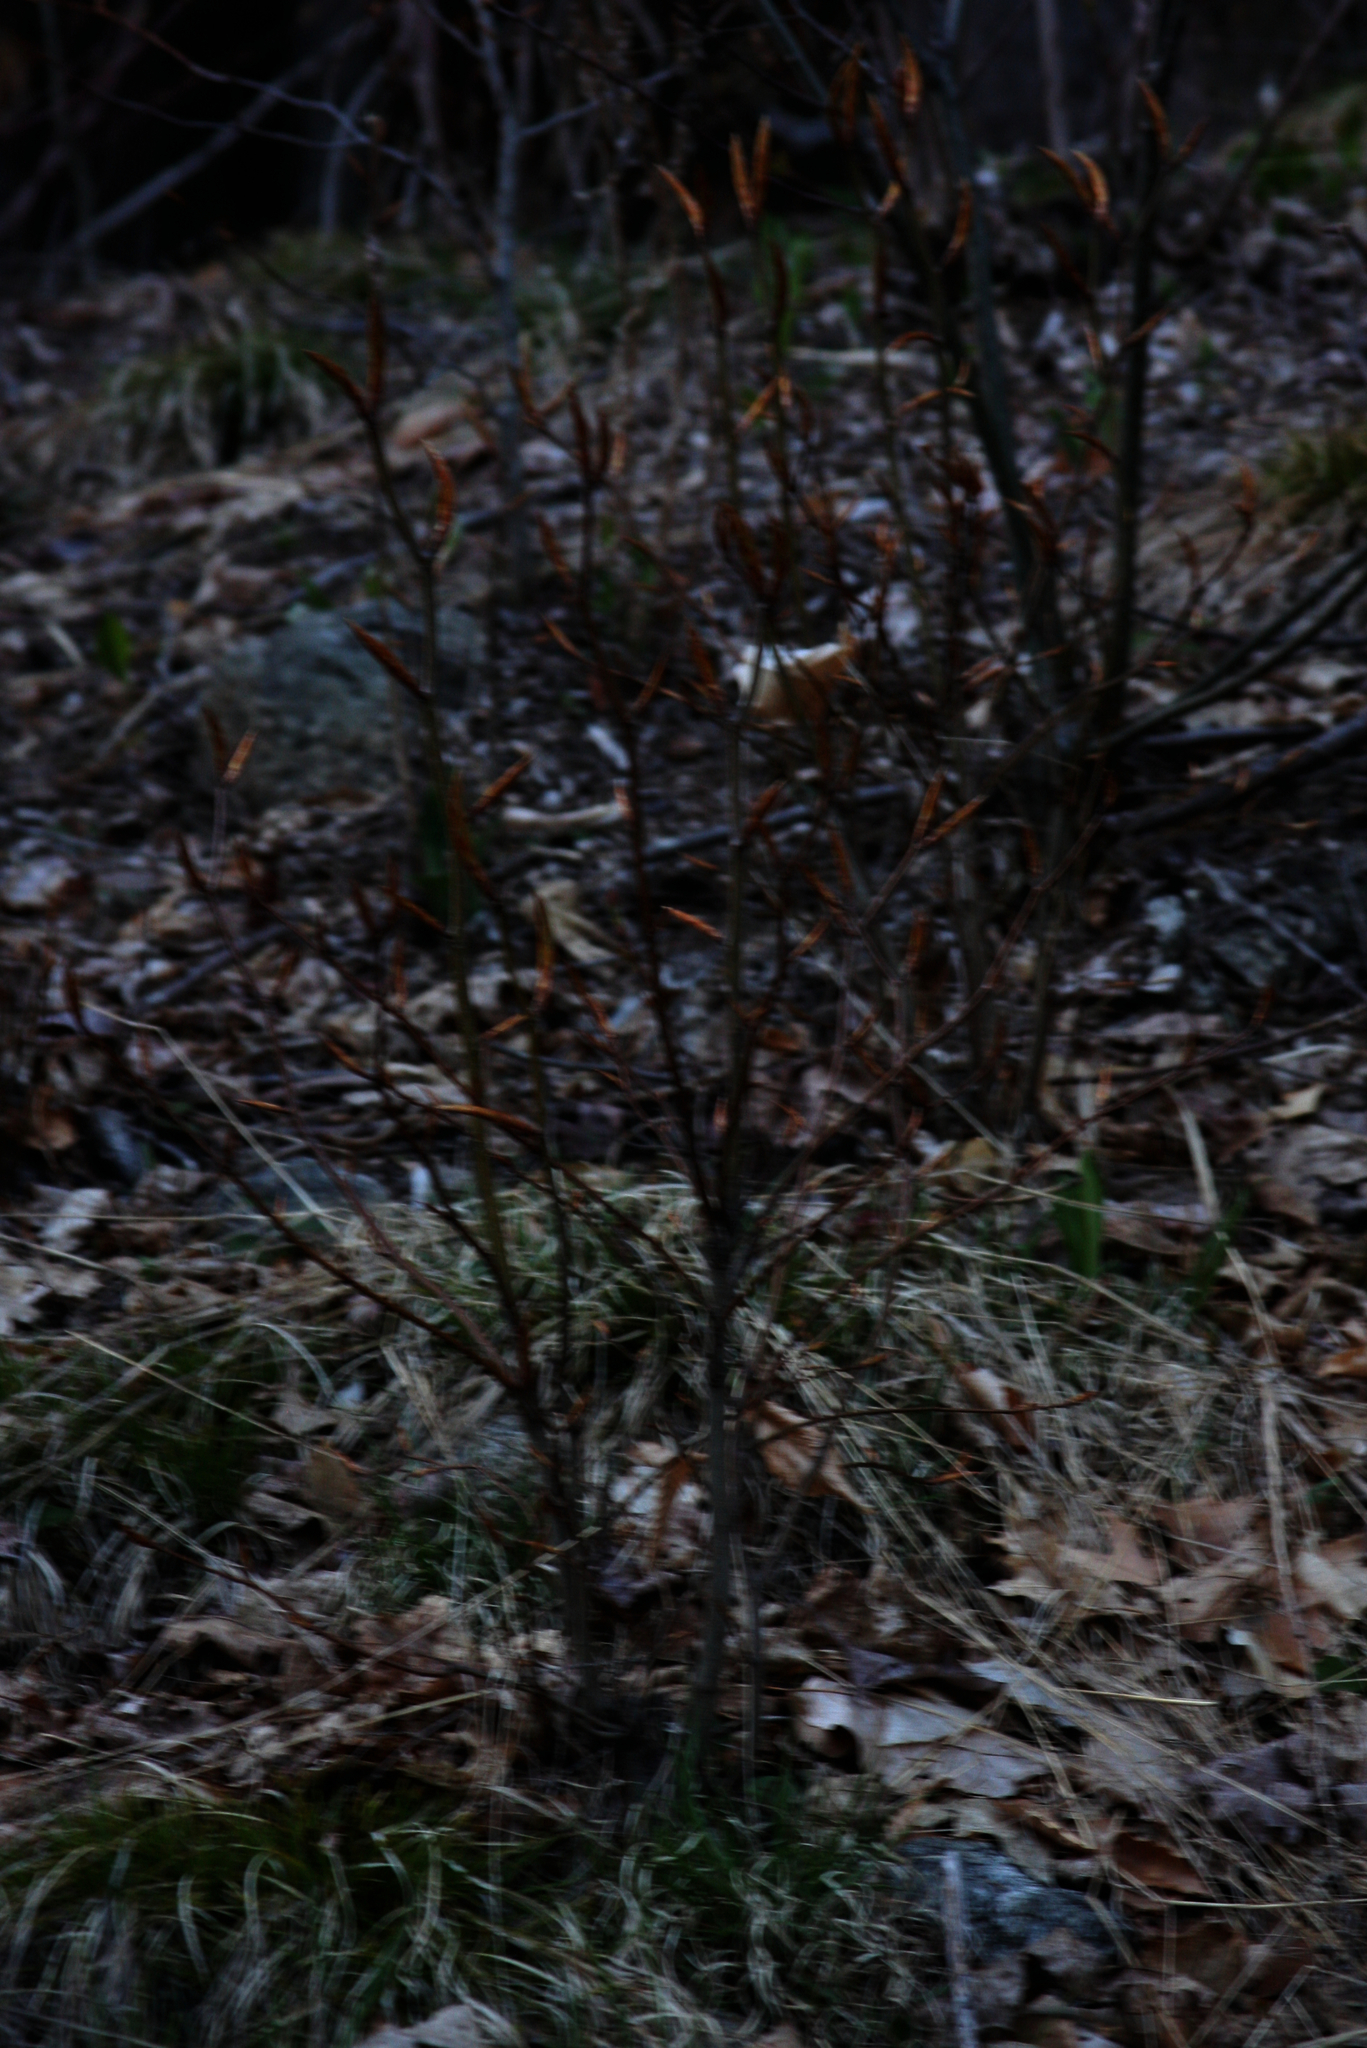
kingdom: Plantae
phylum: Tracheophyta
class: Magnoliopsida
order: Fagales
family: Fagaceae
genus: Fagus
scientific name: Fagus grandifolia
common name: American beech
